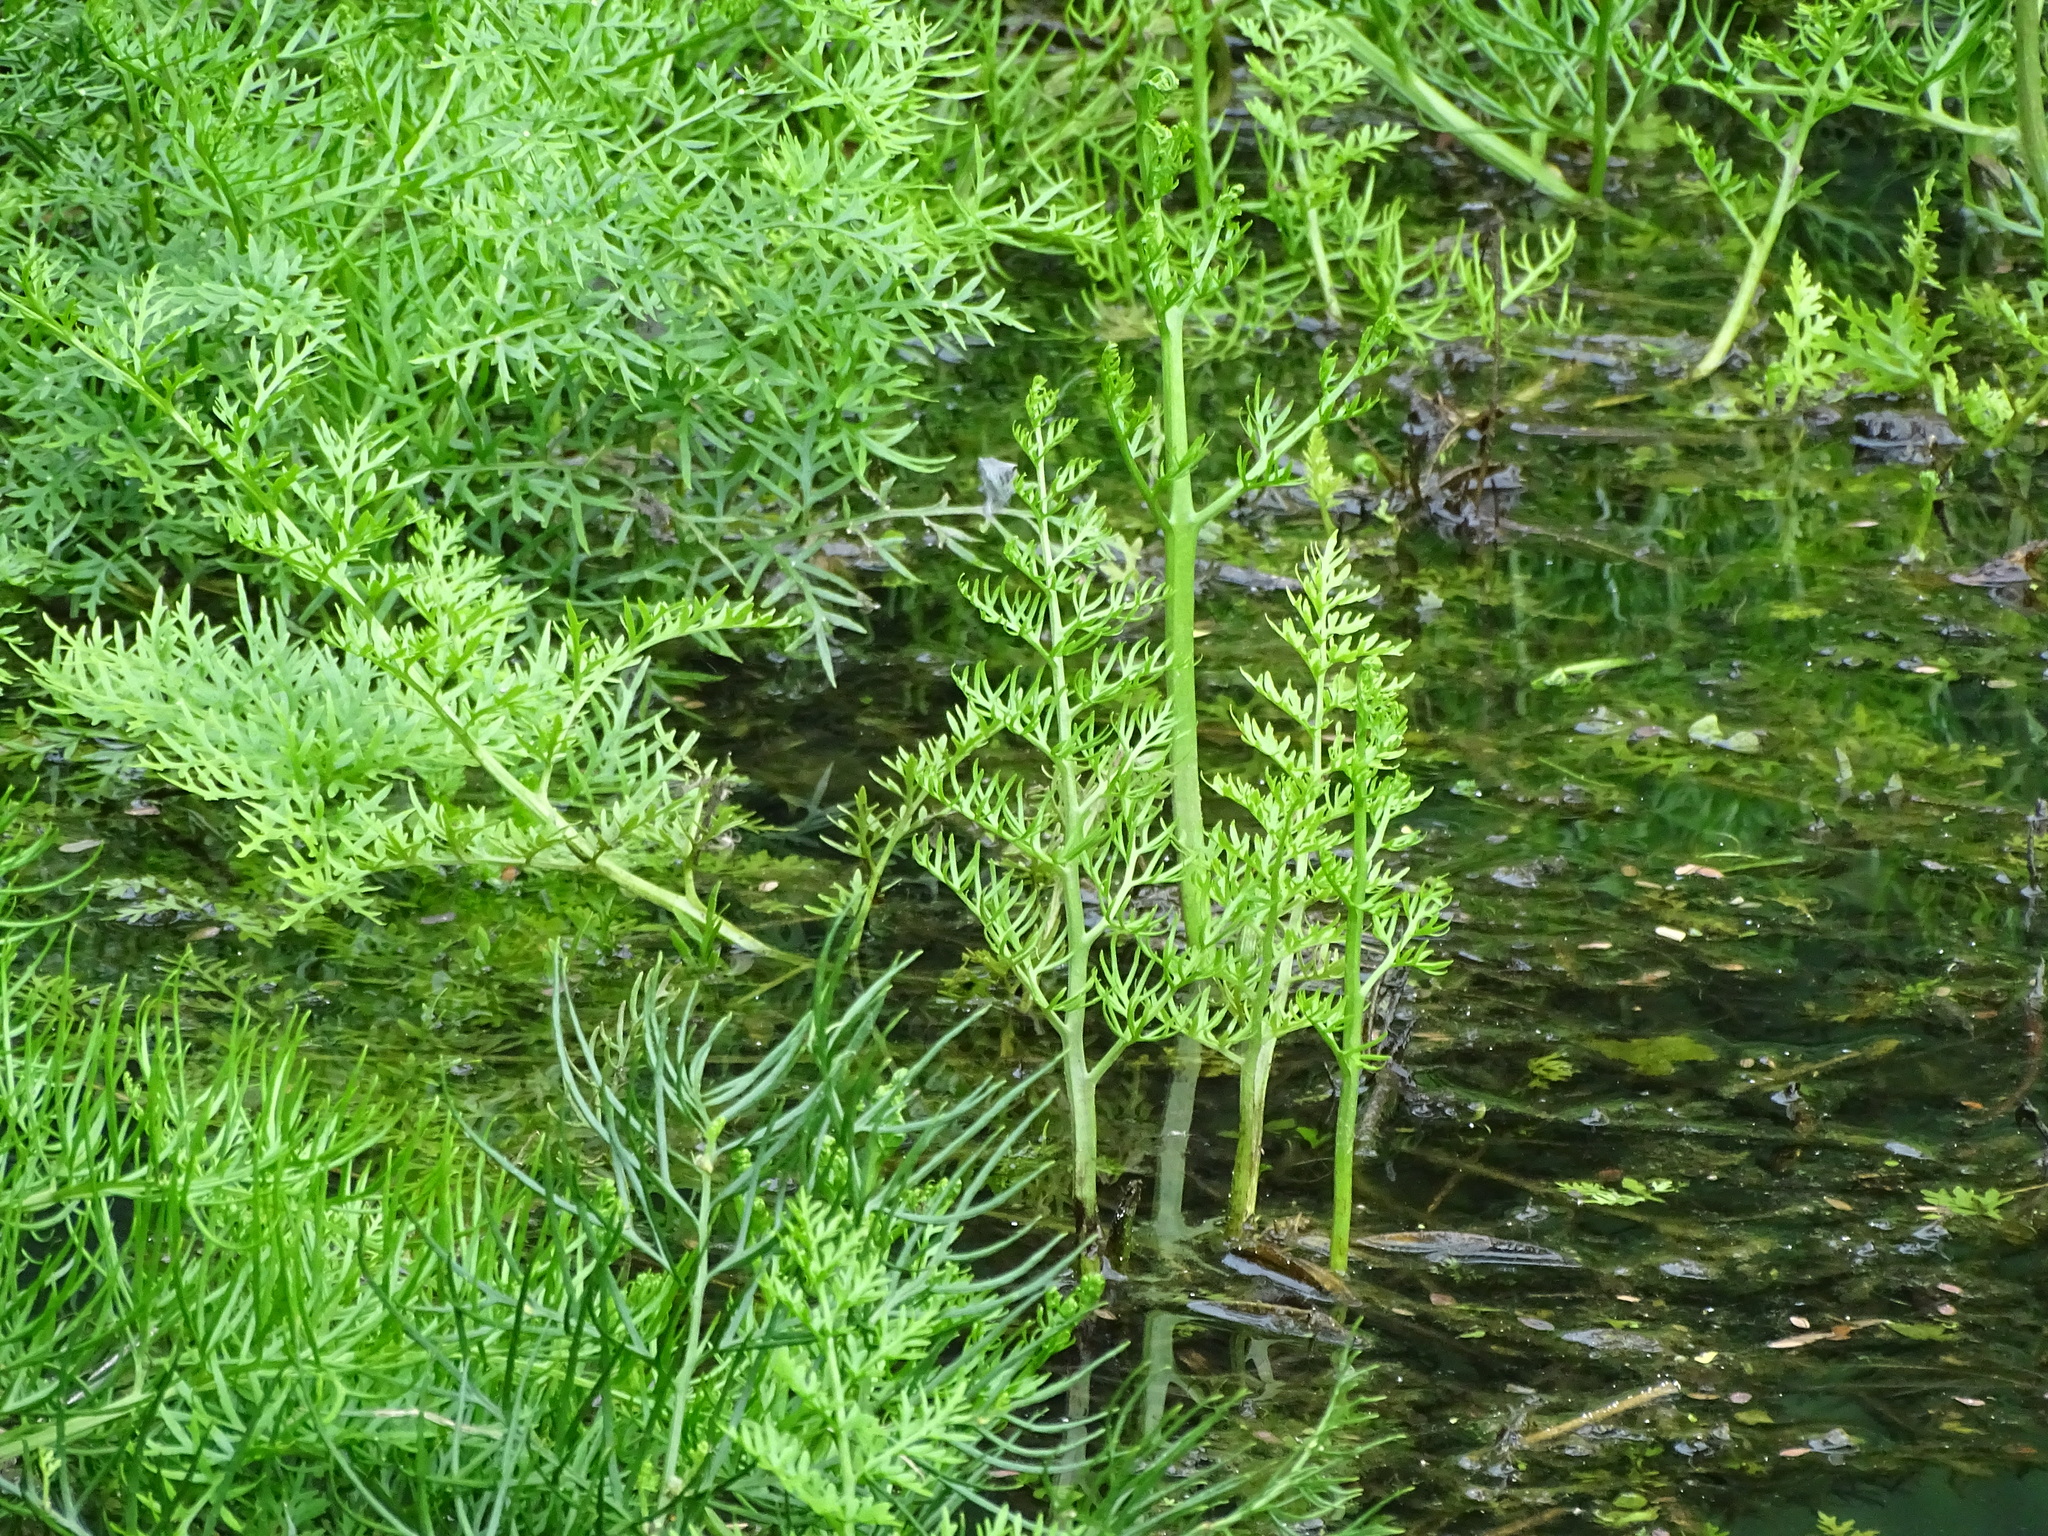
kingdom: Plantae
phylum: Tracheophyta
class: Polypodiopsida
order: Polypodiales
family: Pteridaceae
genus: Ceratopteris
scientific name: Ceratopteris thalictroides
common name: Water fern
